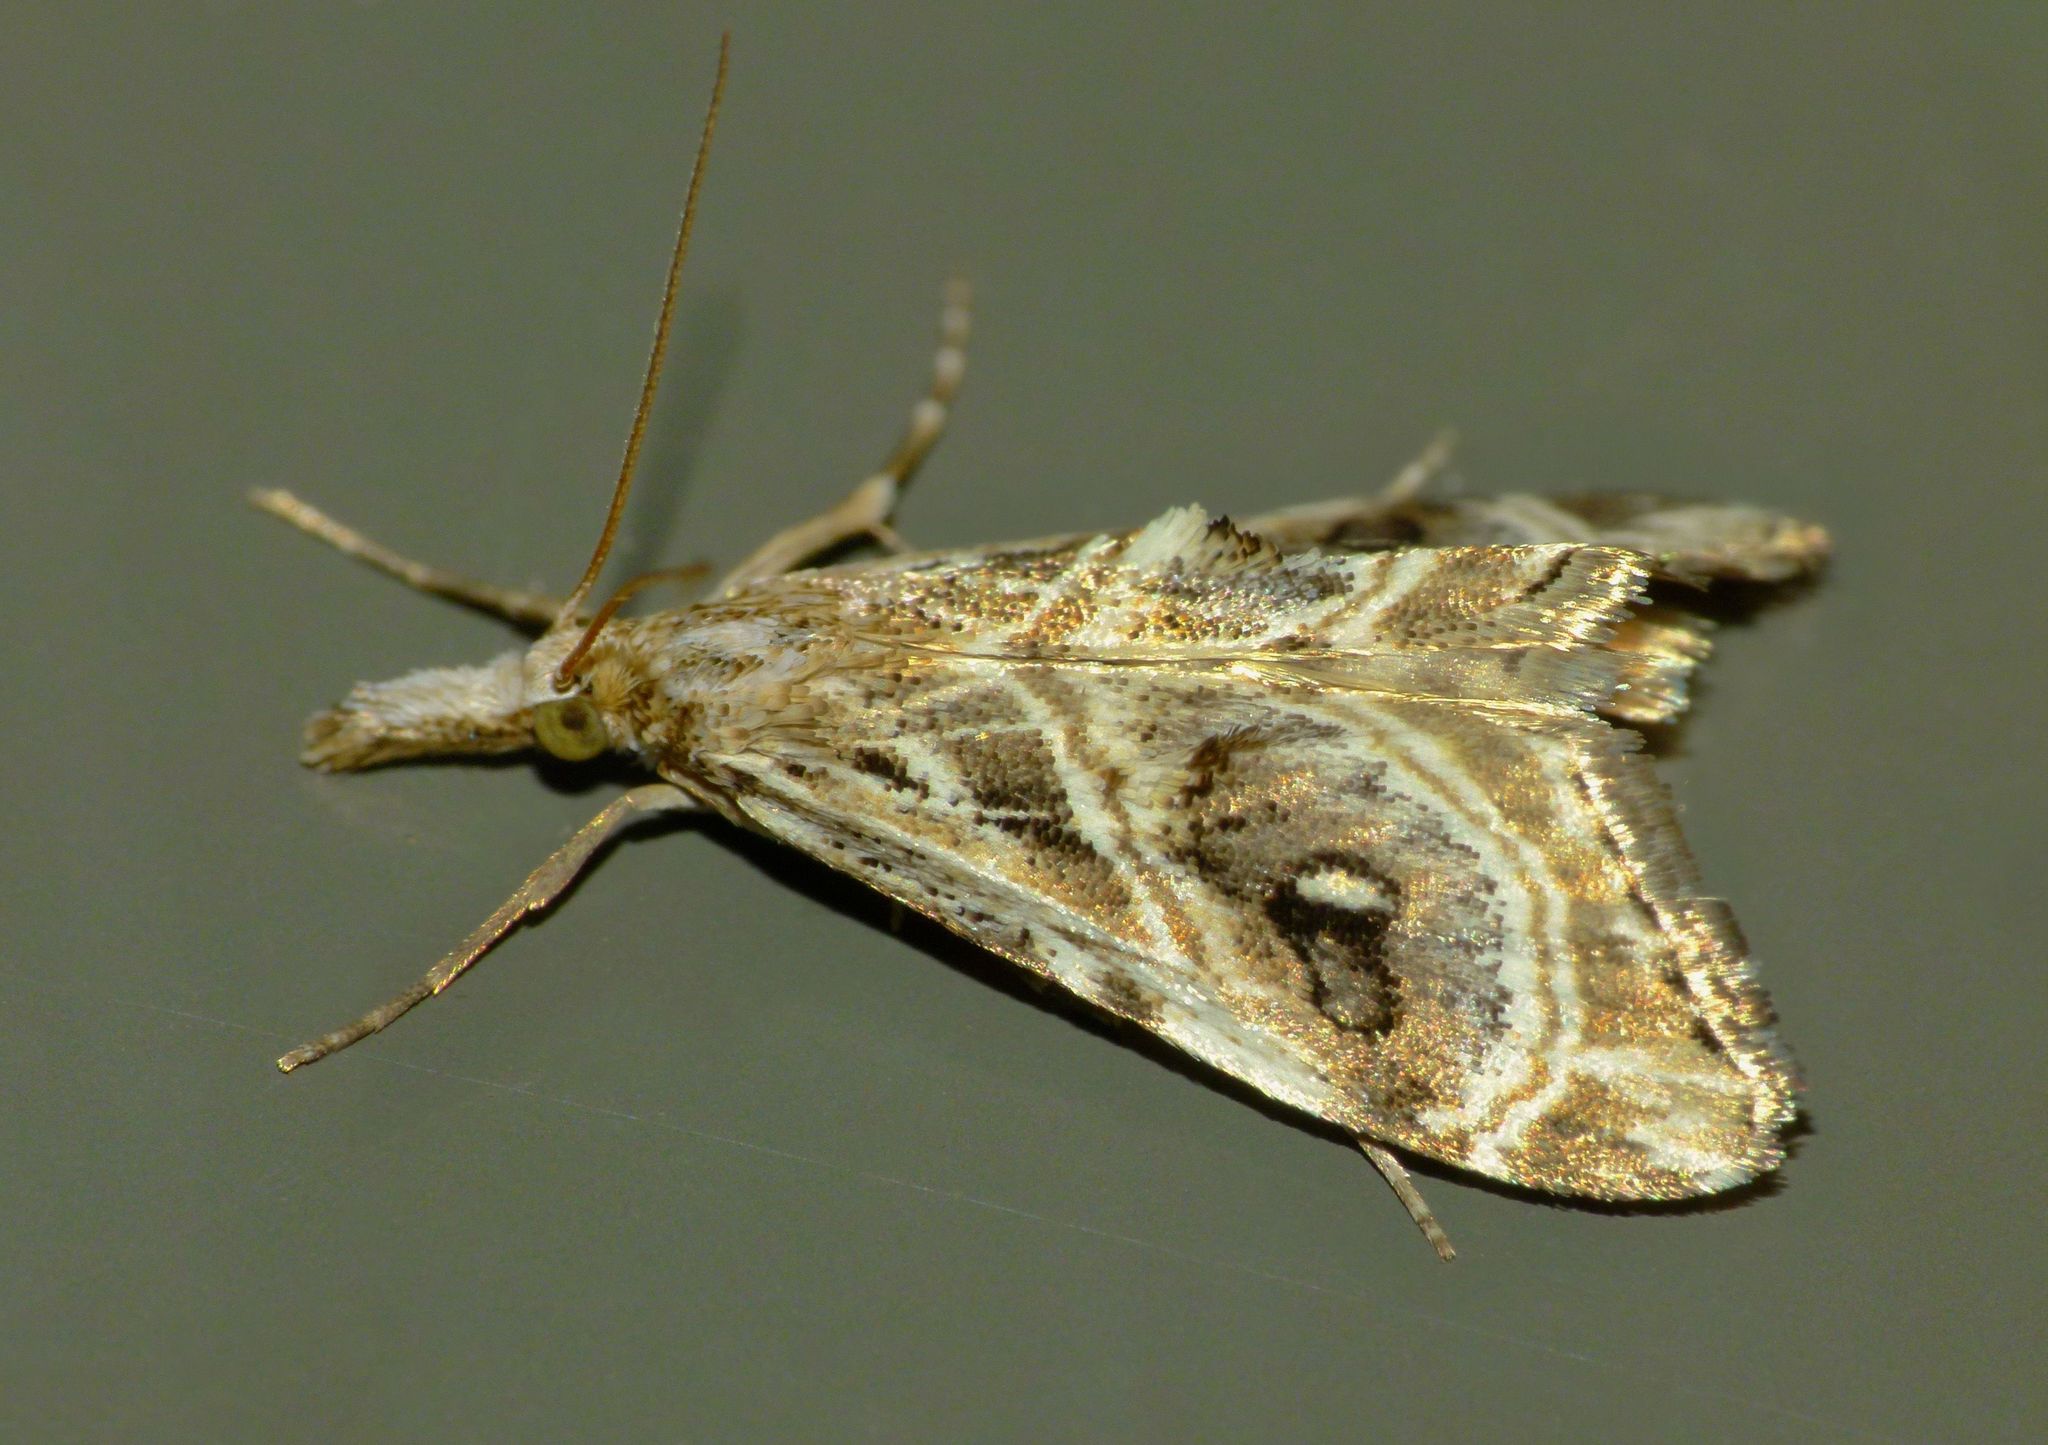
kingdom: Animalia
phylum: Arthropoda
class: Insecta
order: Lepidoptera
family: Crambidae
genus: Gadira
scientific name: Gadira acerella
